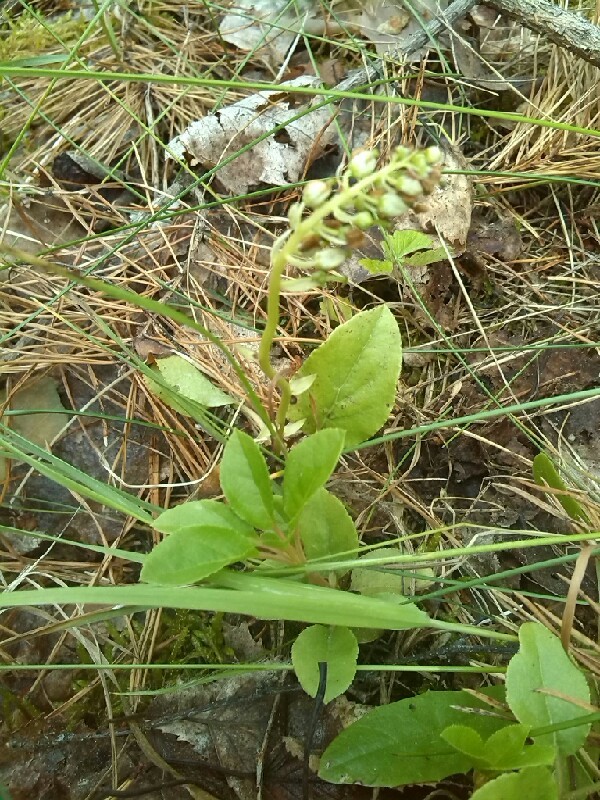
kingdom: Plantae
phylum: Tracheophyta
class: Magnoliopsida
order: Ericales
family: Ericaceae
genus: Orthilia
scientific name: Orthilia secunda
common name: One-sided orthilia
